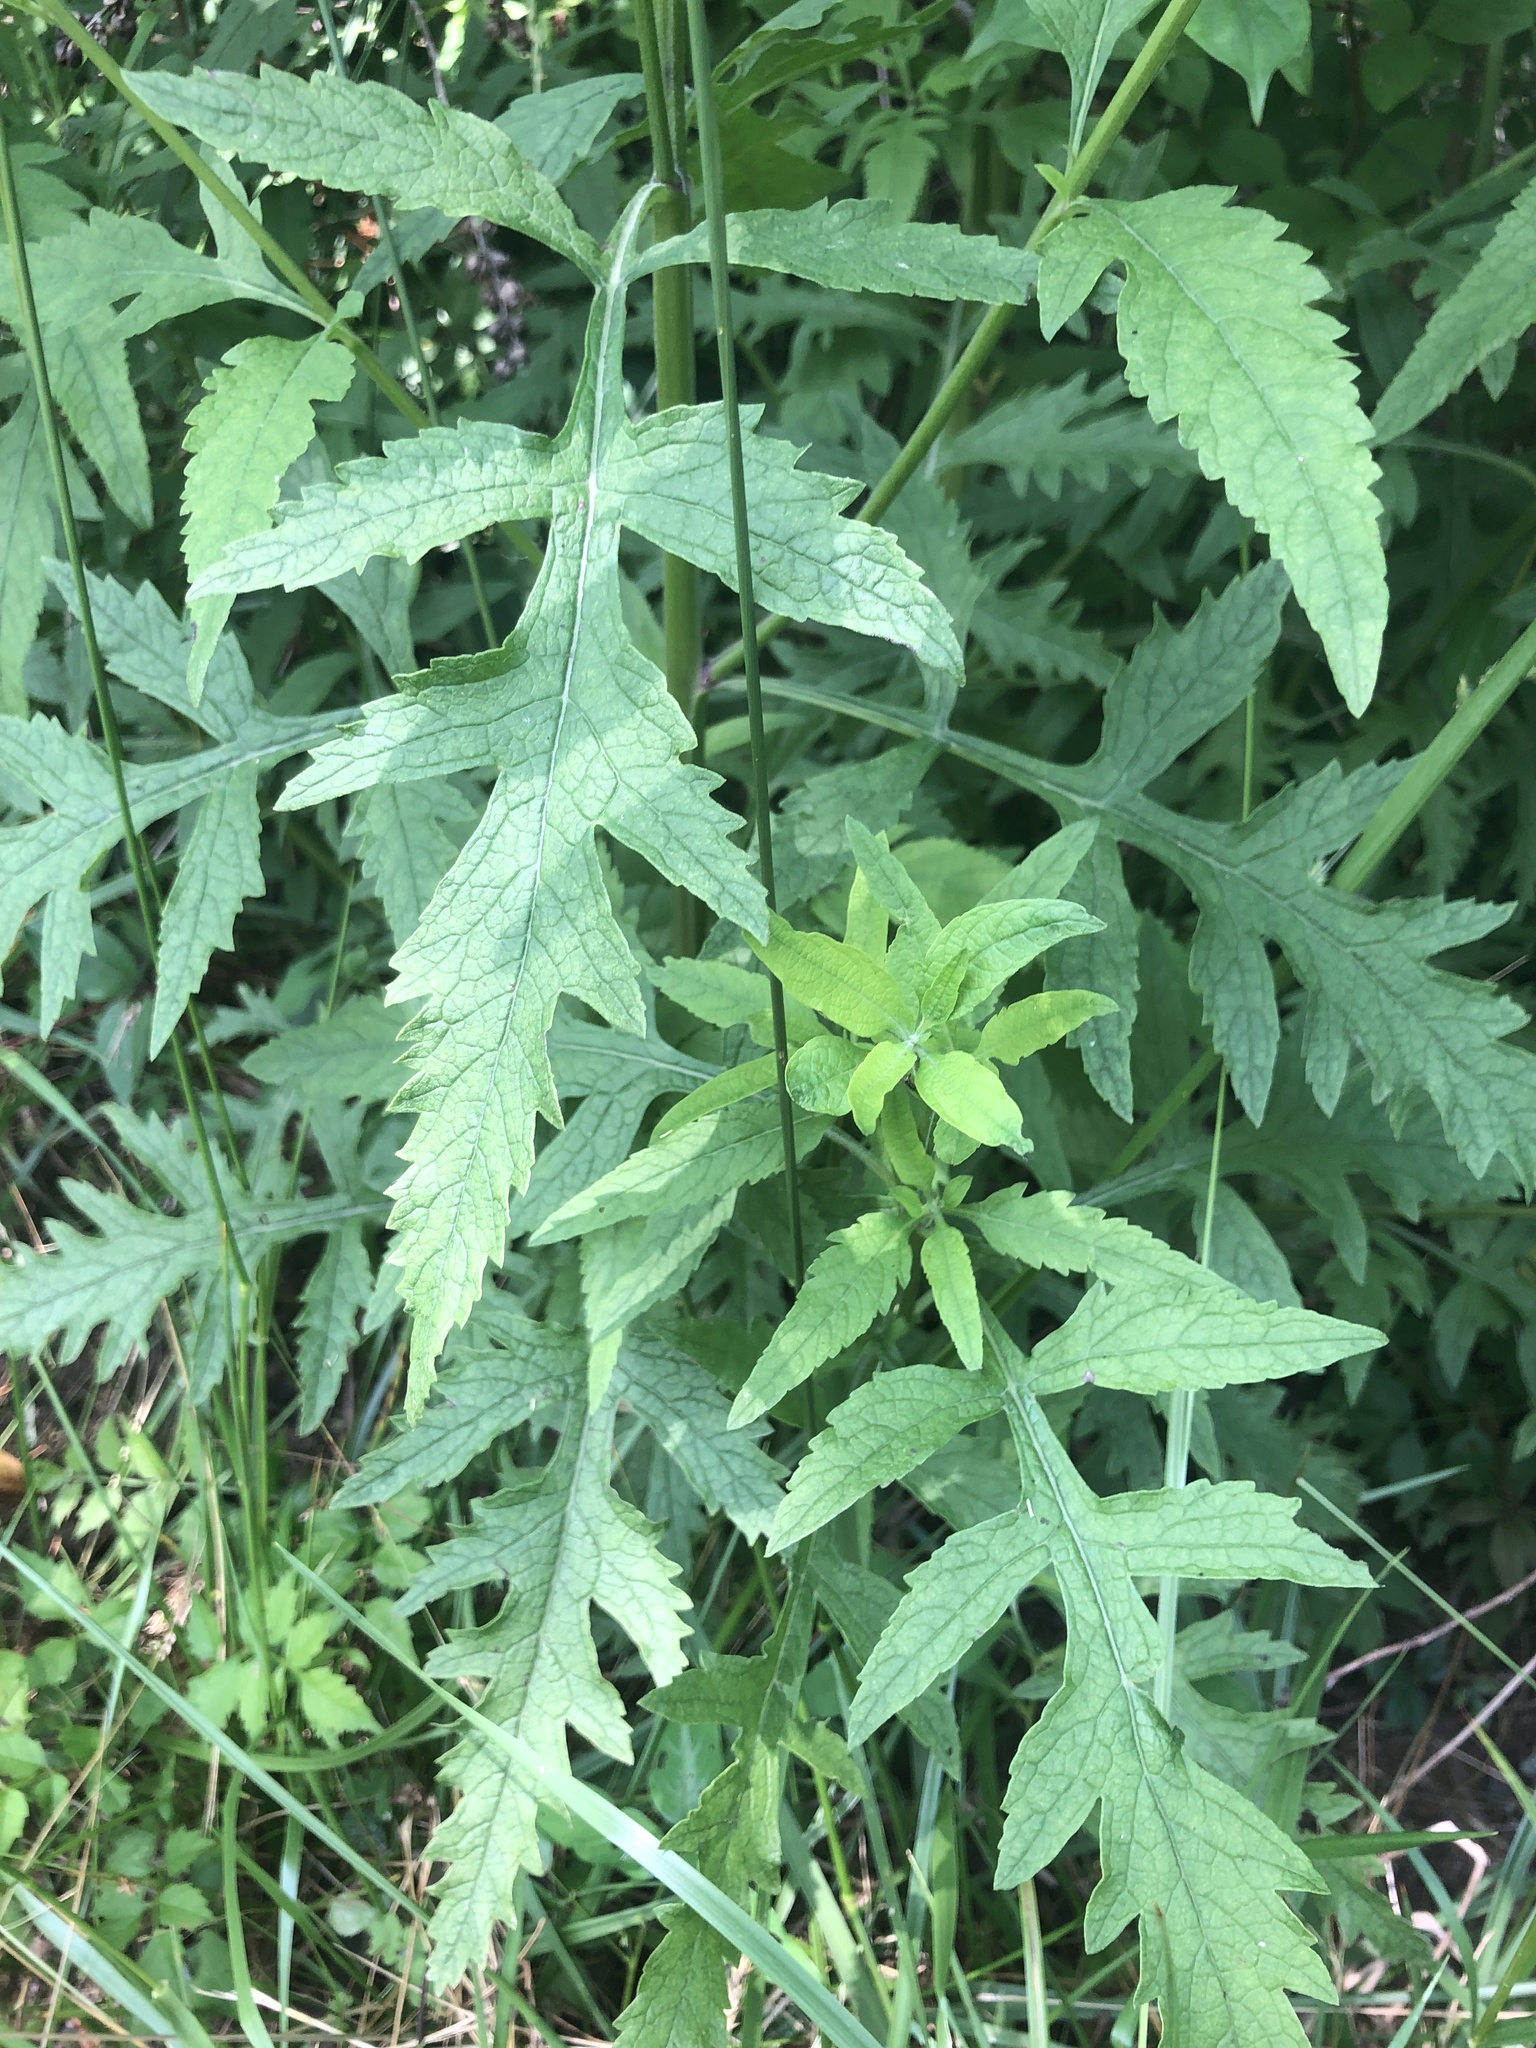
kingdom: Plantae
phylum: Tracheophyta
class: Magnoliopsida
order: Lamiales
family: Orobanchaceae
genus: Dasistoma
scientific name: Dasistoma macrophyllum
